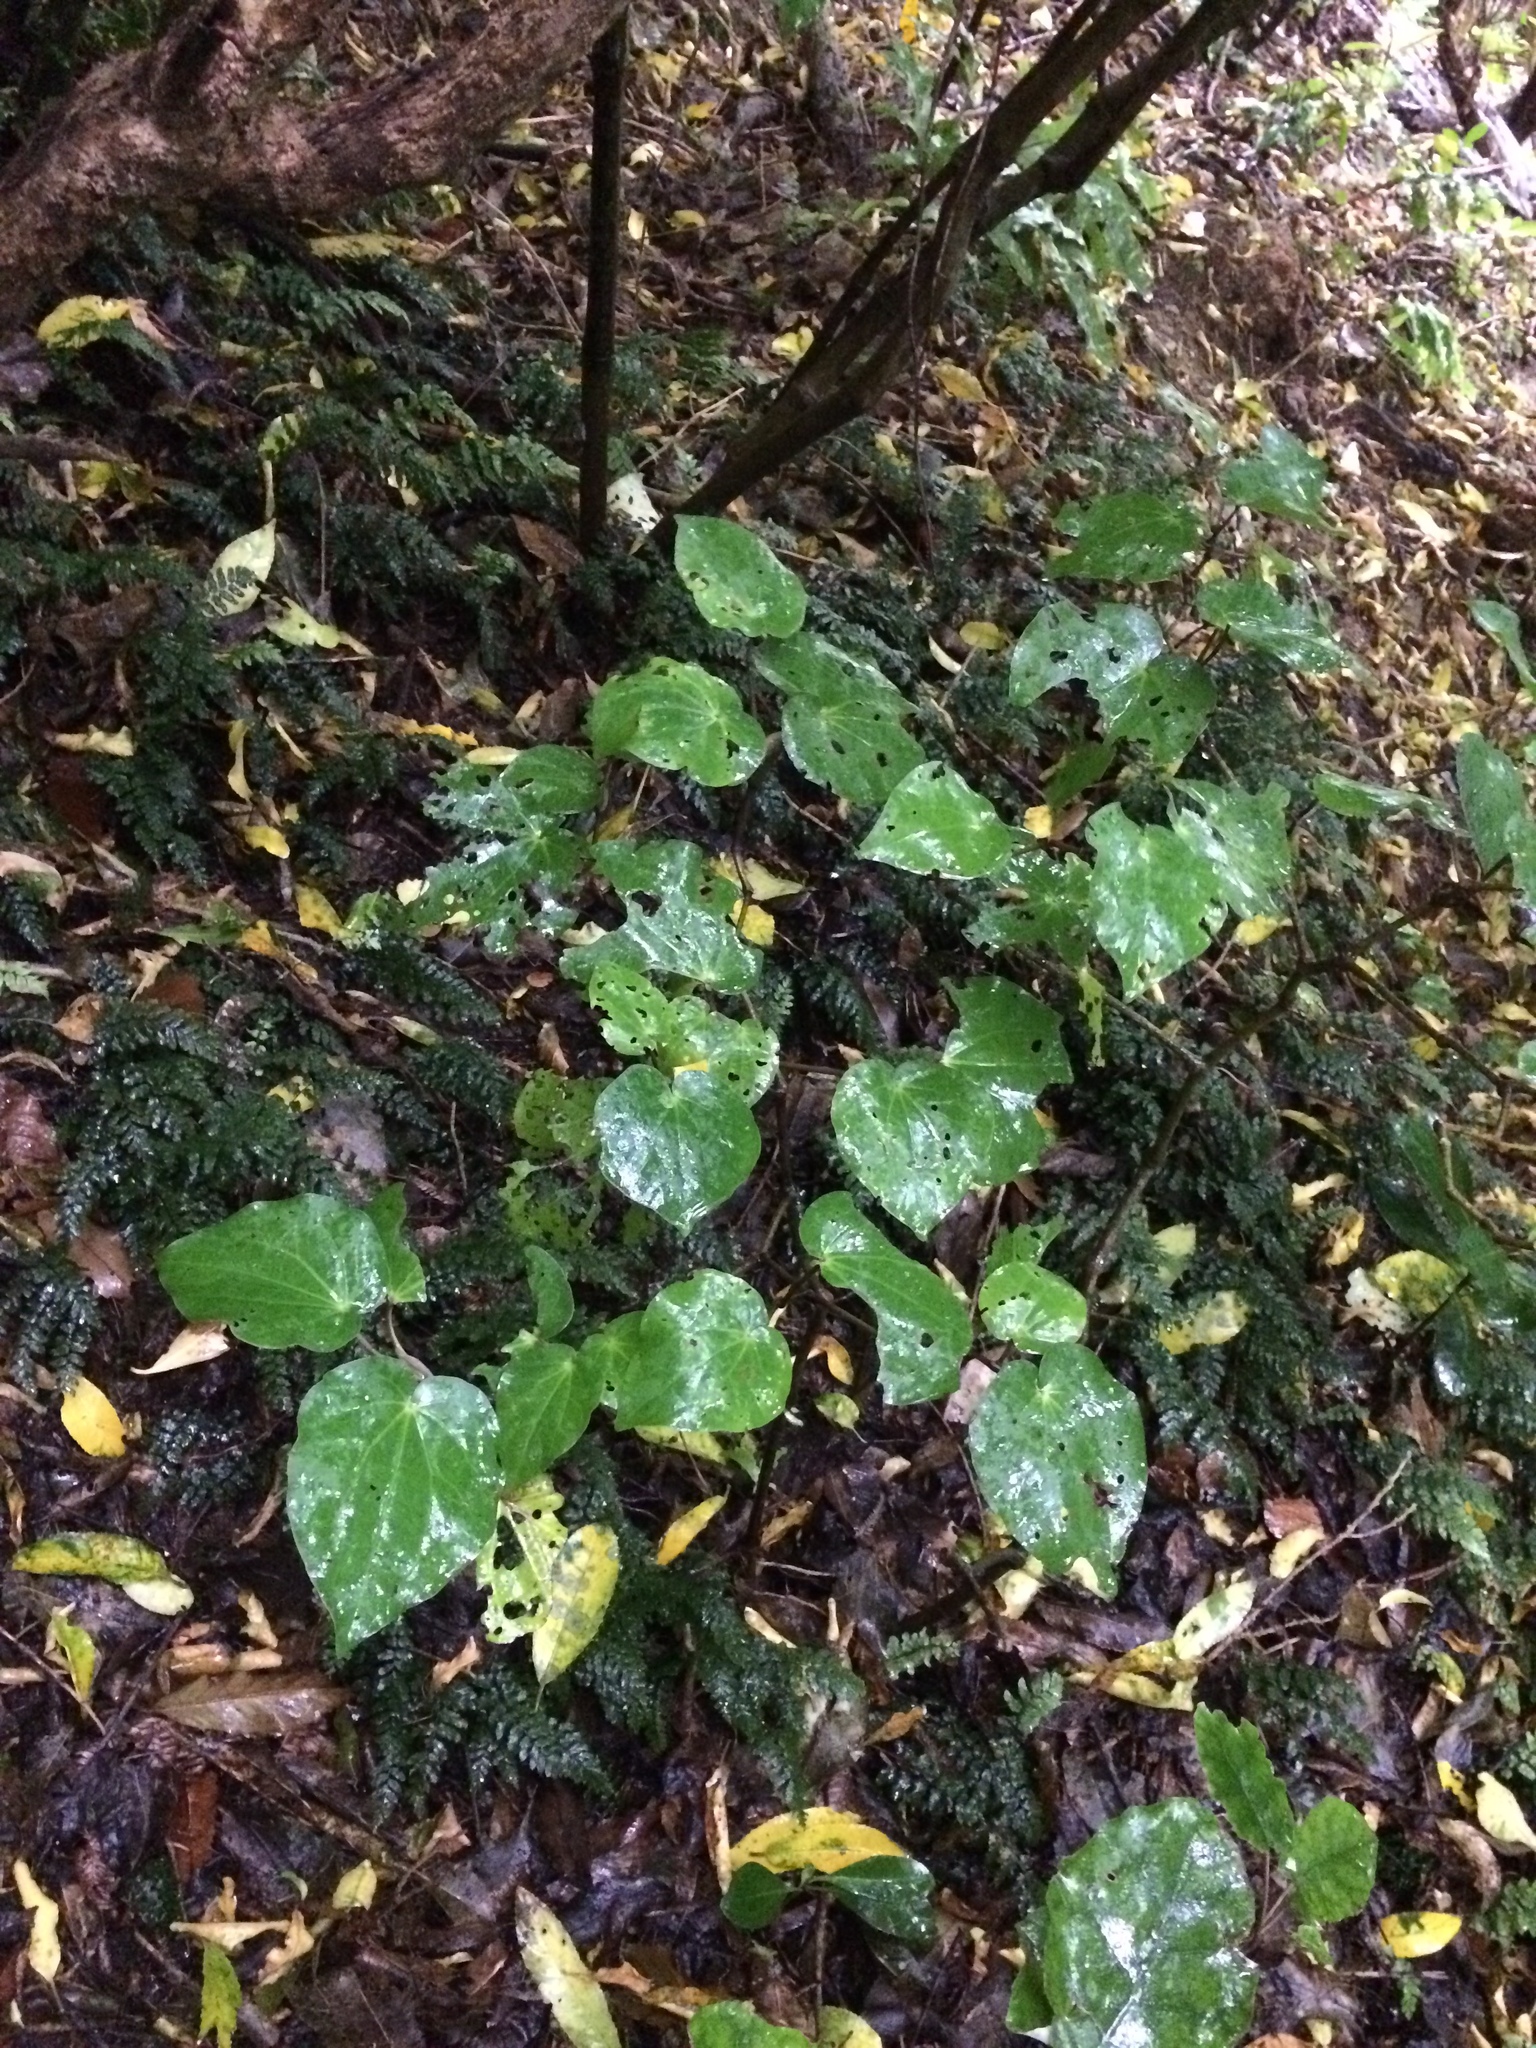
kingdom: Plantae
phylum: Tracheophyta
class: Magnoliopsida
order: Piperales
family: Piperaceae
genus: Macropiper
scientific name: Macropiper excelsum
